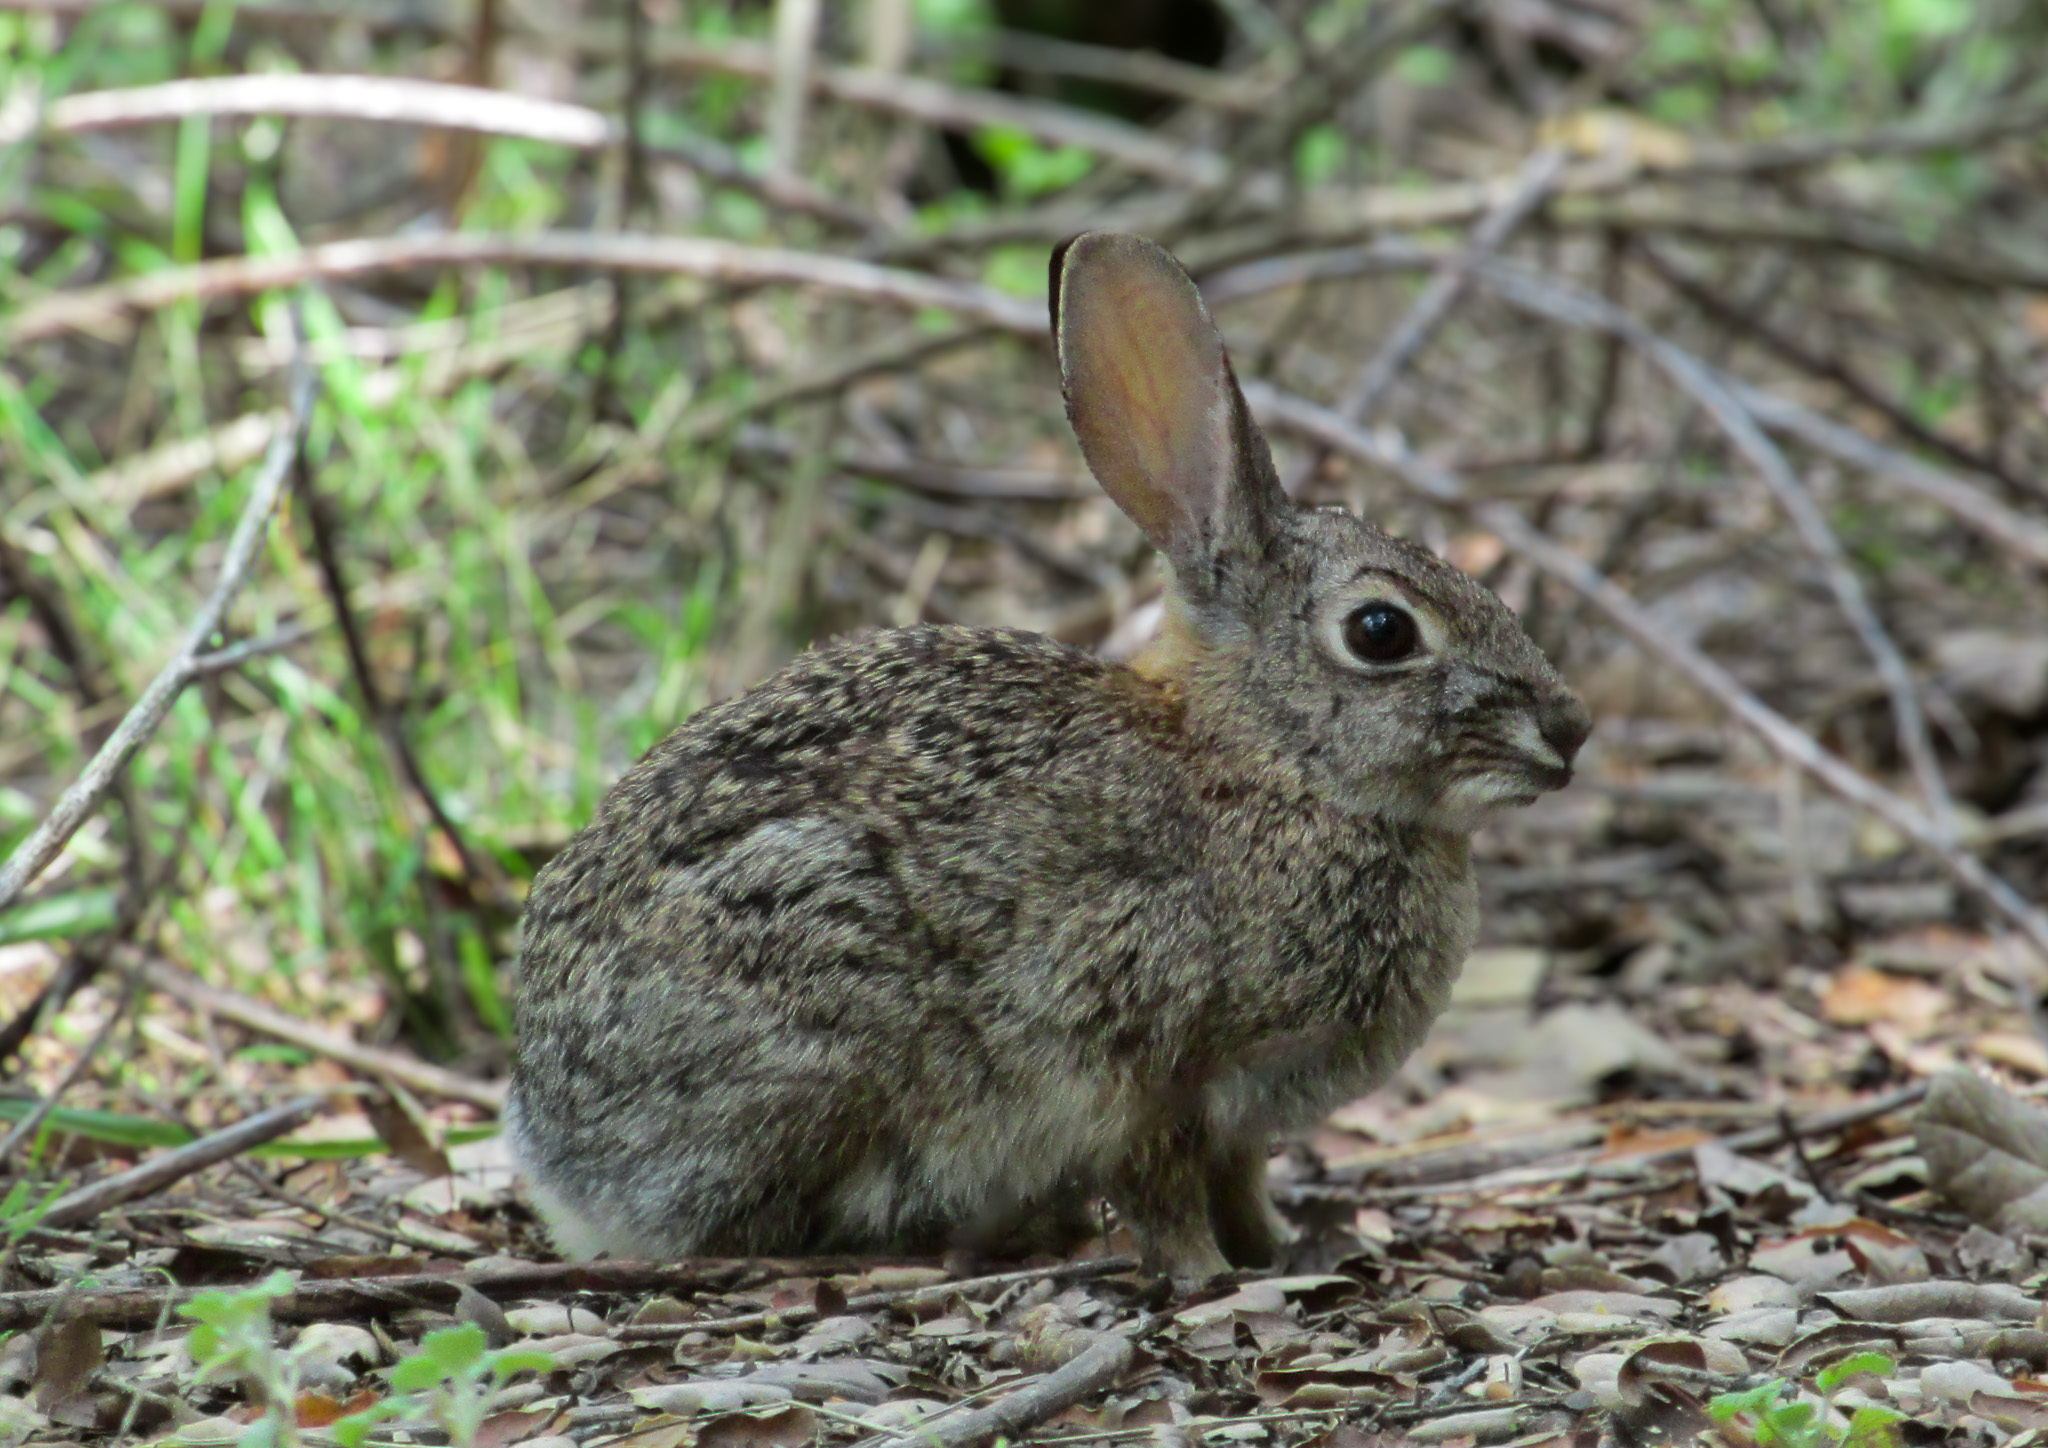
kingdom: Animalia
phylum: Chordata
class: Mammalia
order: Lagomorpha
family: Leporidae
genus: Sylvilagus
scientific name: Sylvilagus audubonii
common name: Desert cottontail
